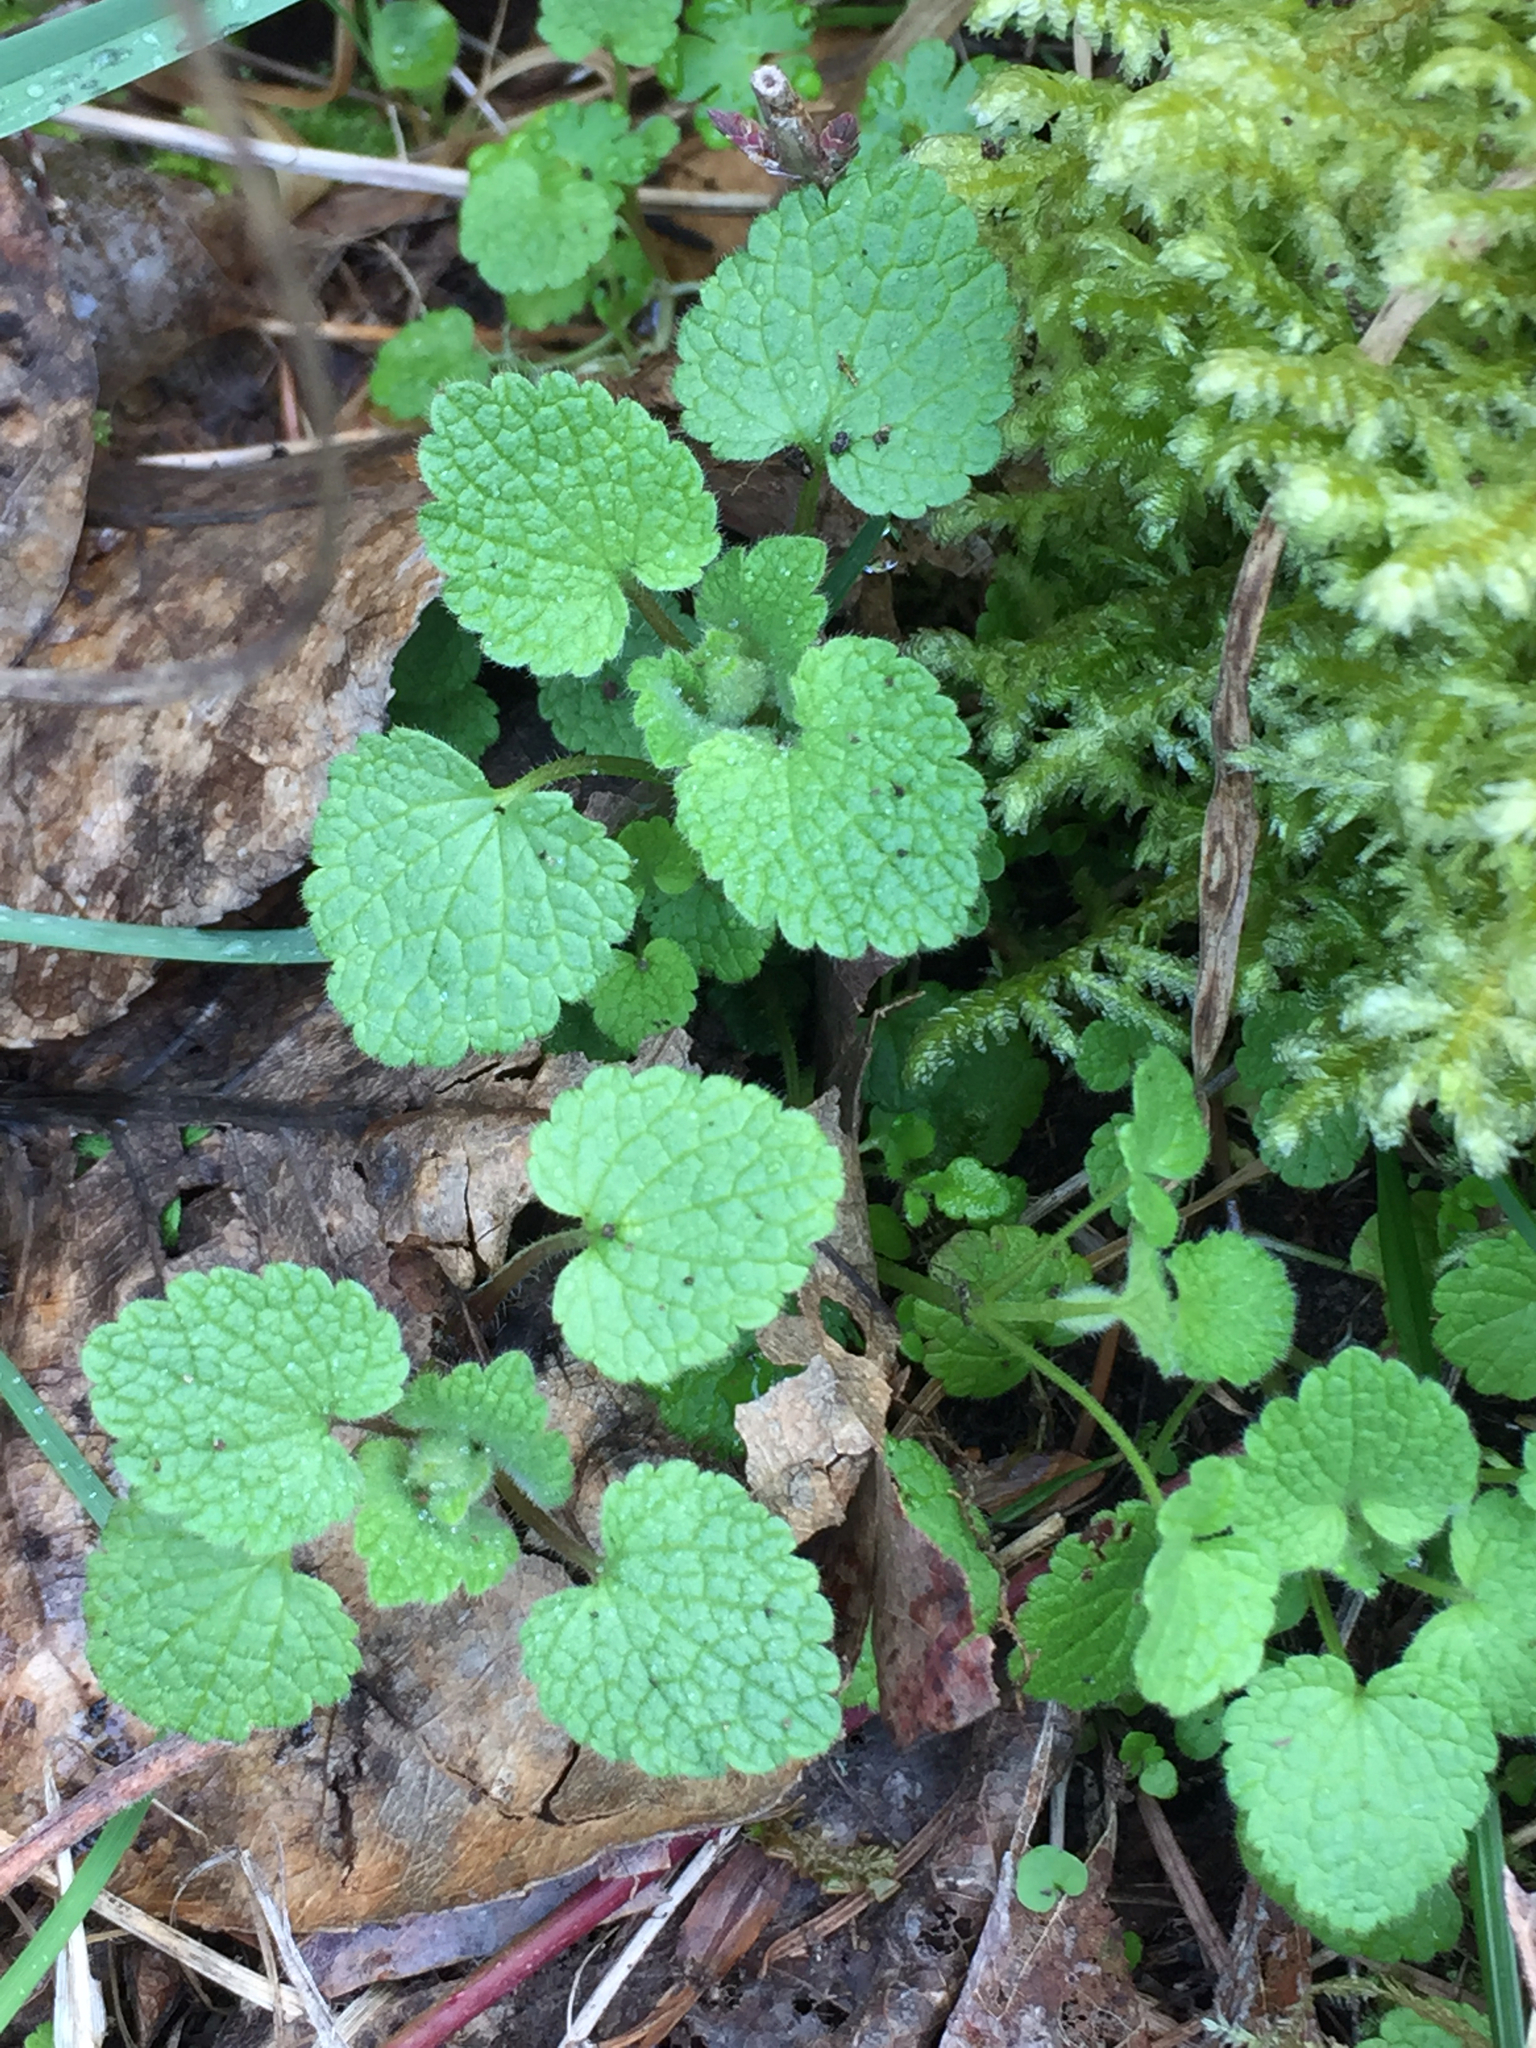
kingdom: Plantae
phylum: Tracheophyta
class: Magnoliopsida
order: Lamiales
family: Lamiaceae
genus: Lamium
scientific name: Lamium purpureum
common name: Red dead-nettle
